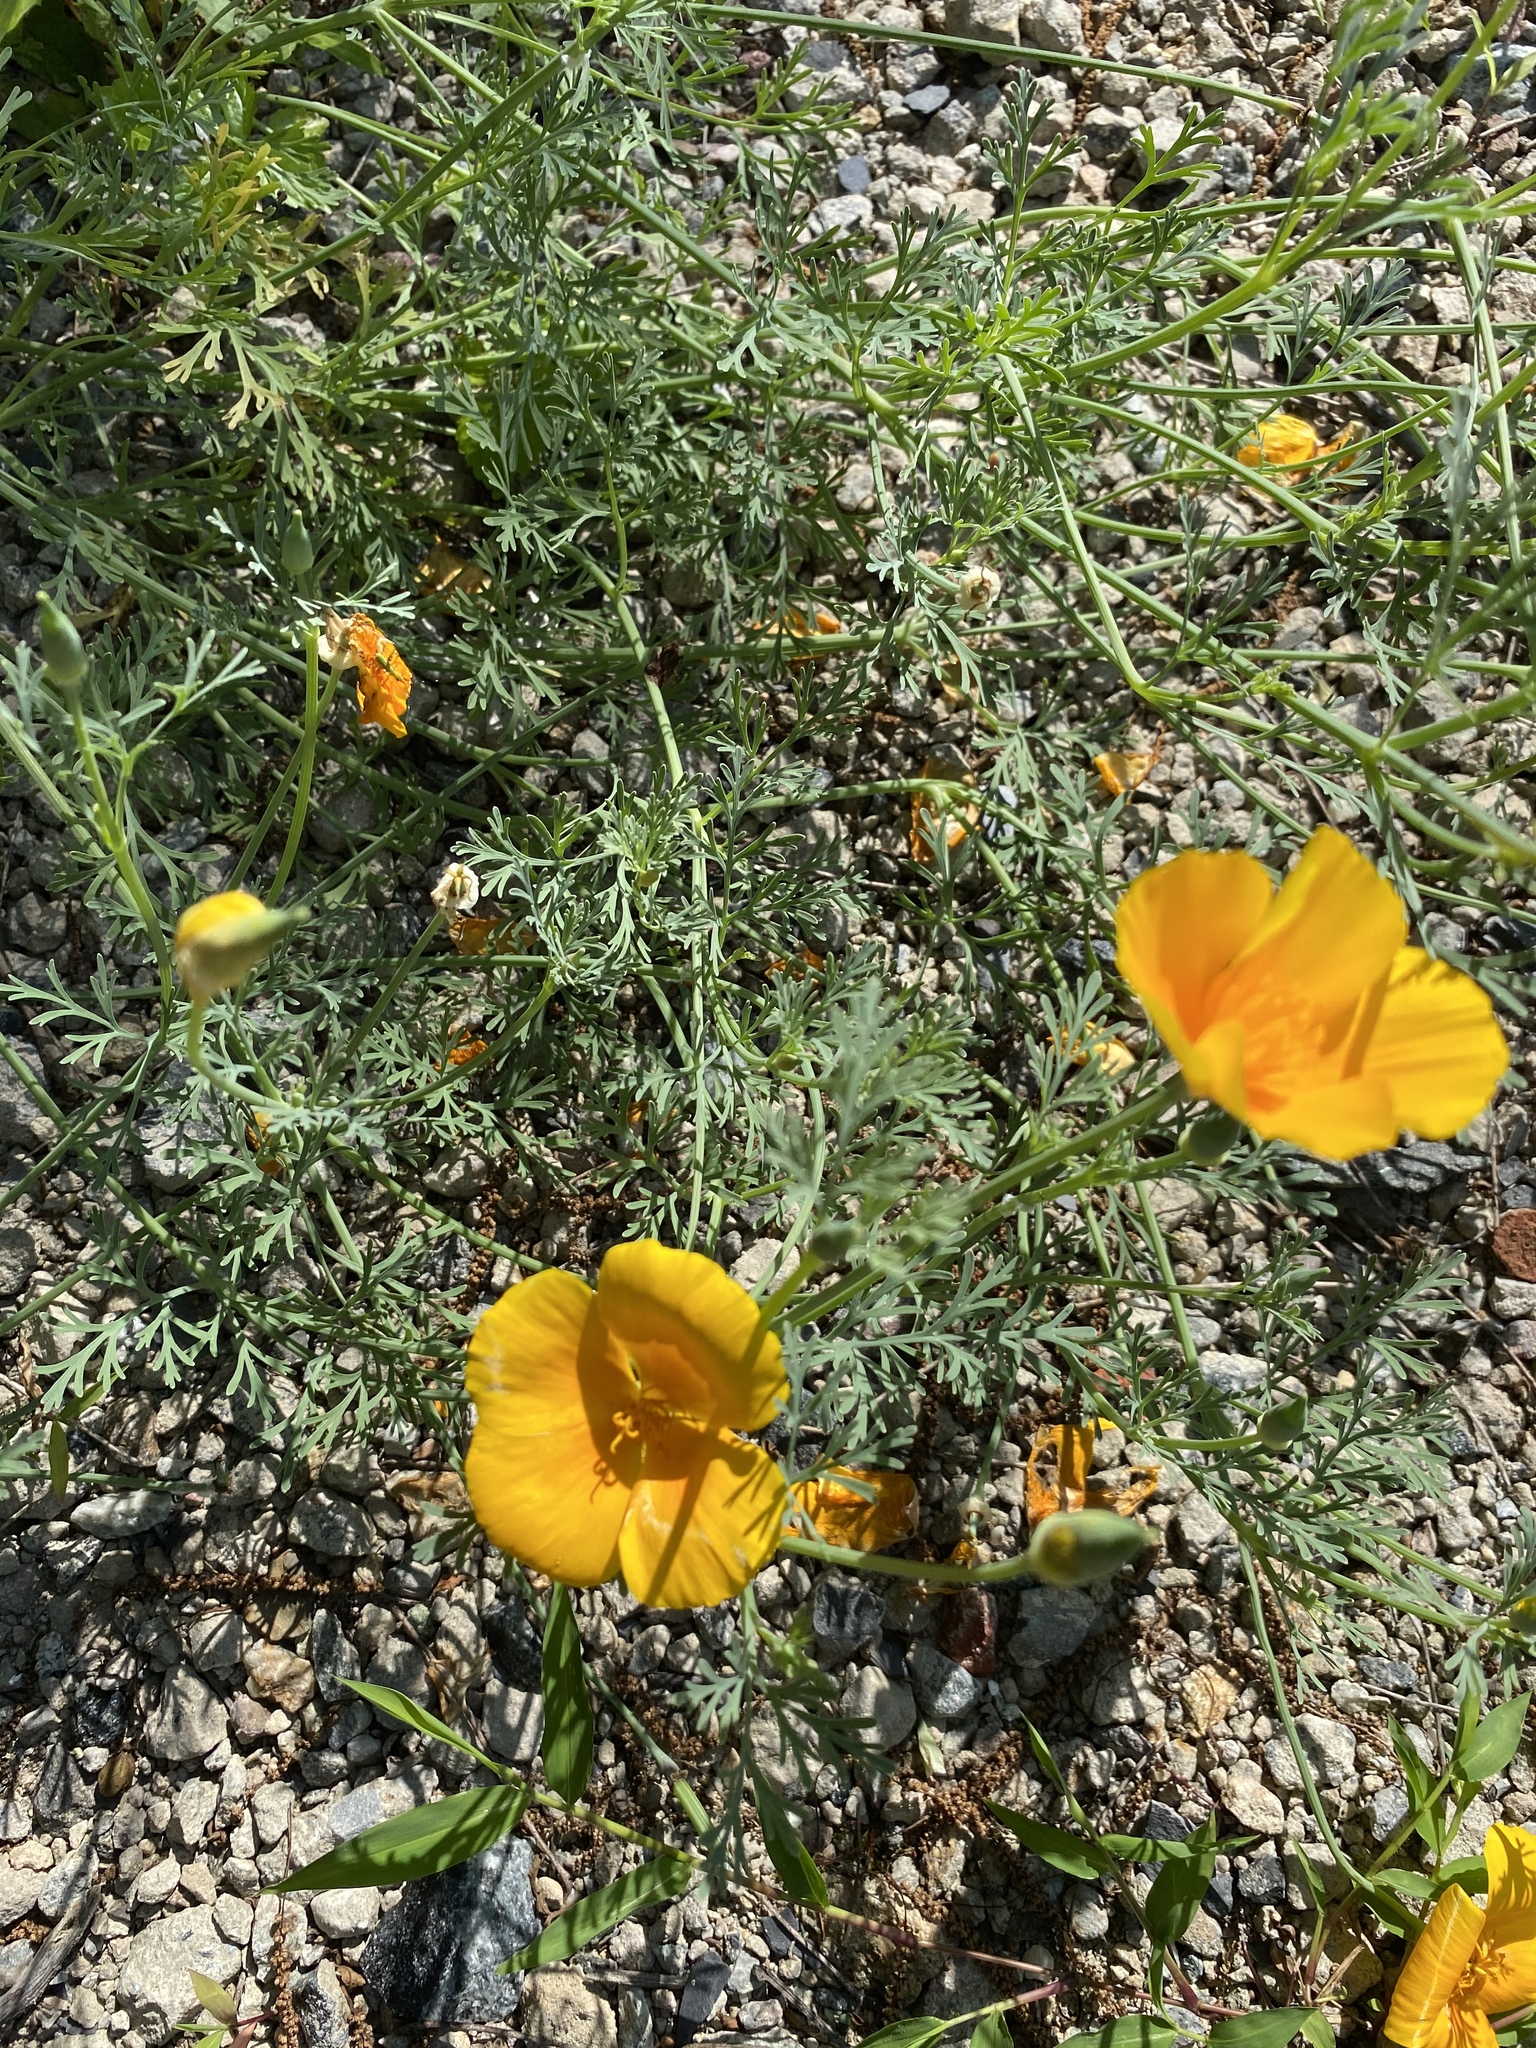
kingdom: Plantae
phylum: Tracheophyta
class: Magnoliopsida
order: Ranunculales
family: Papaveraceae
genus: Eschscholzia
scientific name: Eschscholzia californica
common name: California poppy
